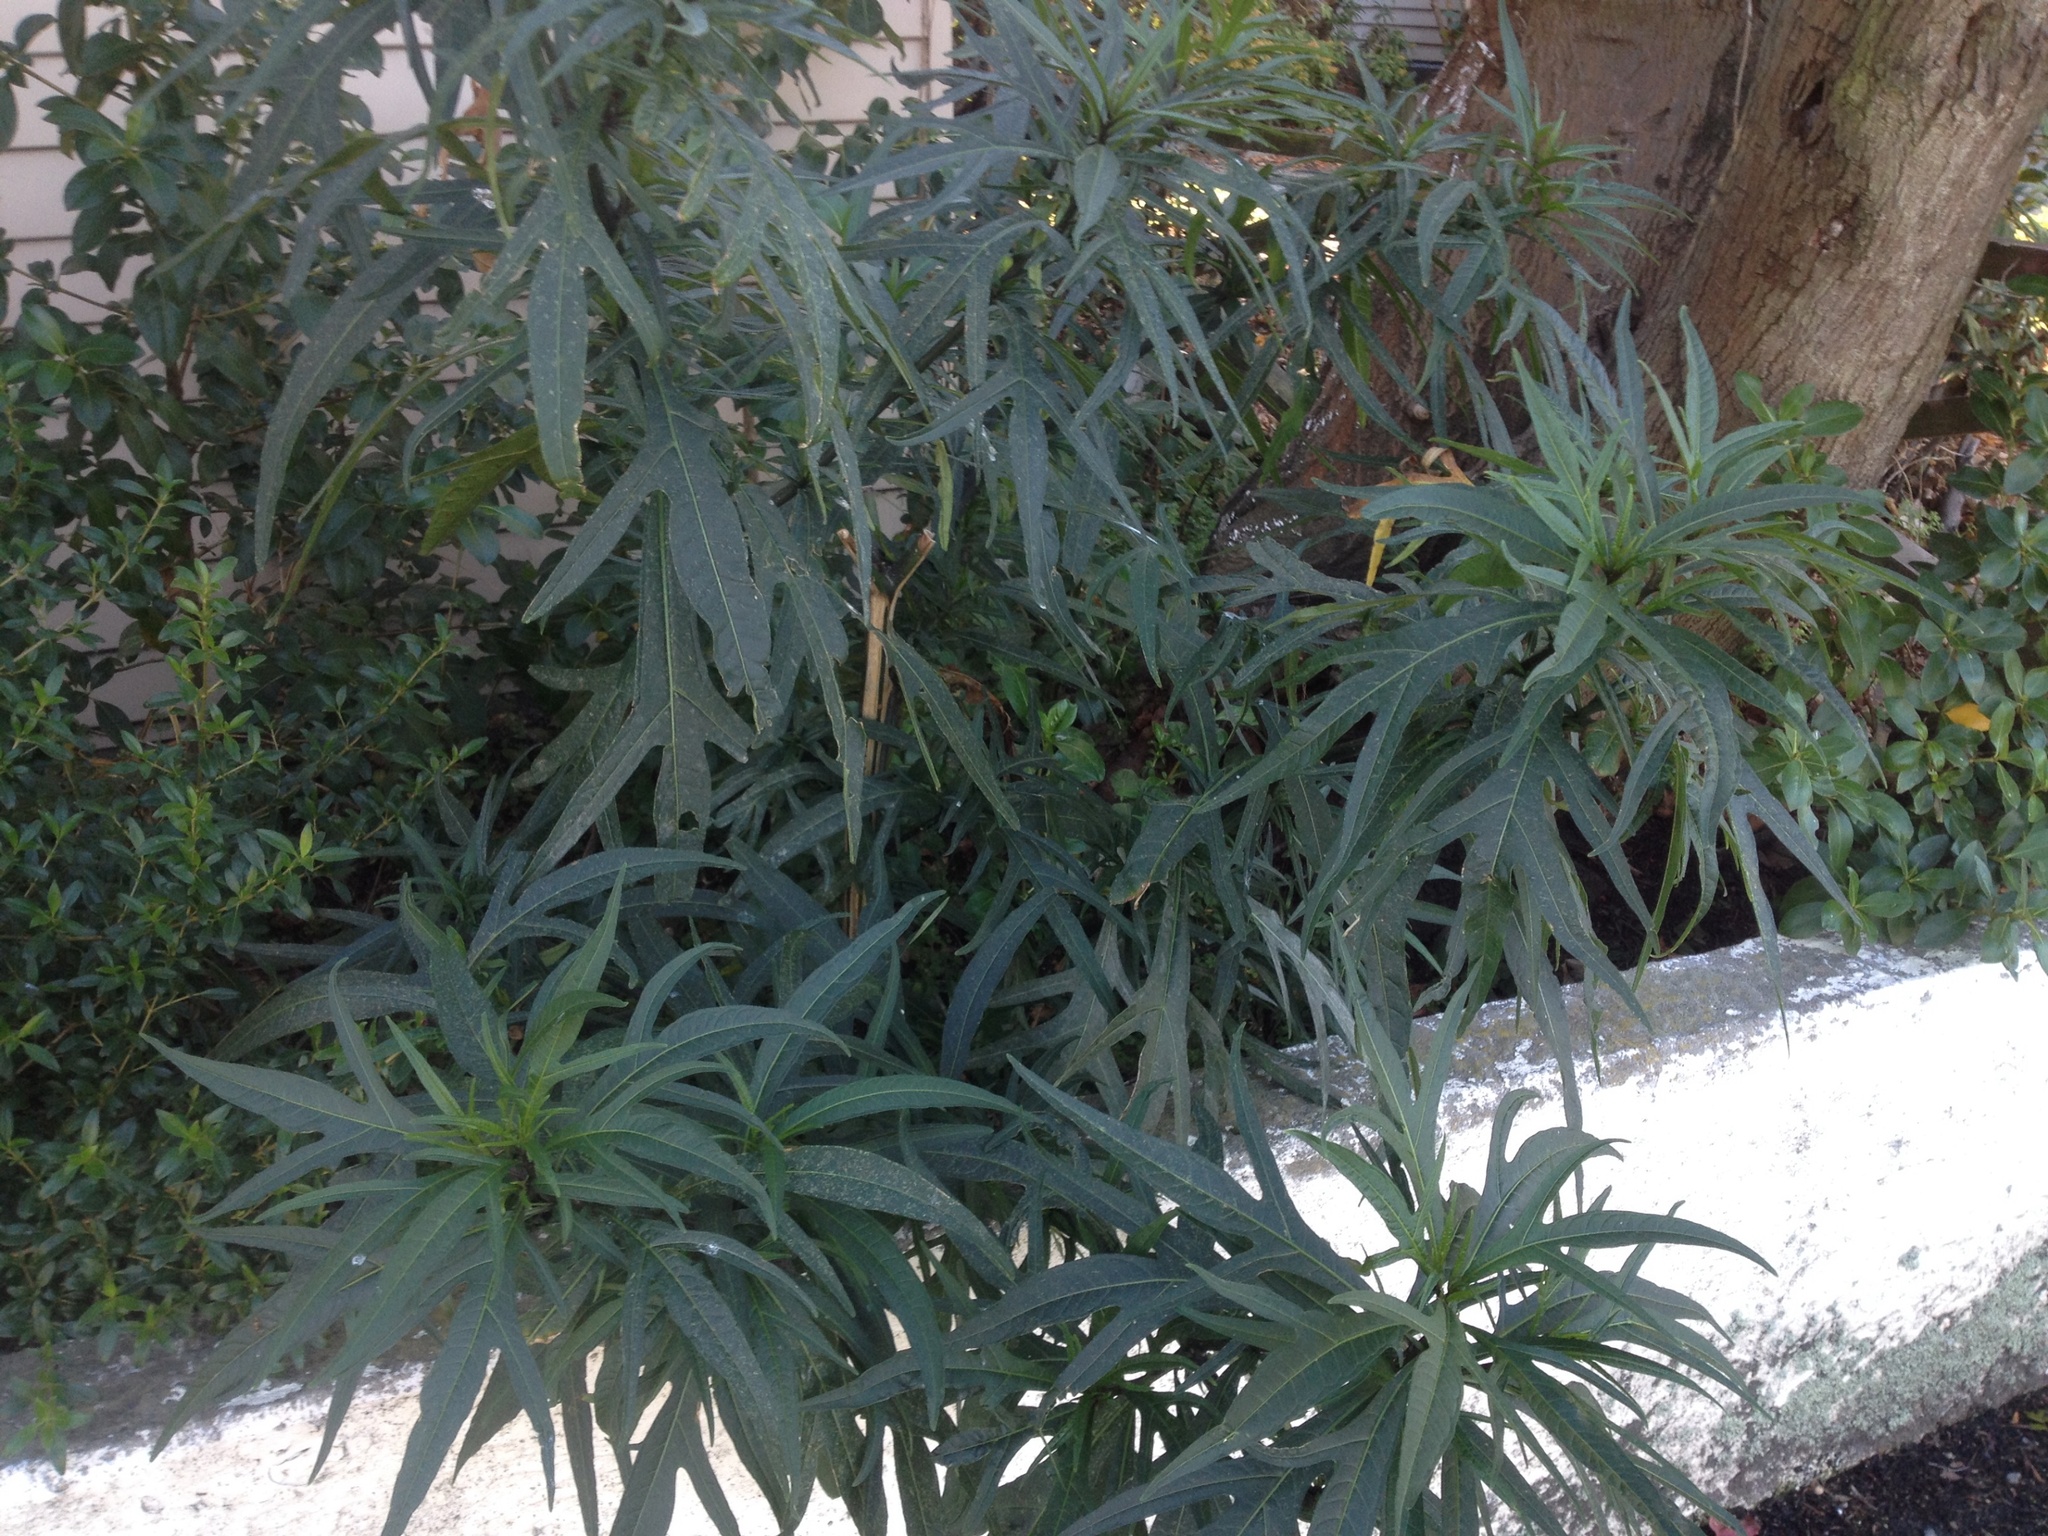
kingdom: Plantae
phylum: Tracheophyta
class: Magnoliopsida
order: Solanales
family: Solanaceae
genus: Solanum
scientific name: Solanum laciniatum
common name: Kangaroo-apple
